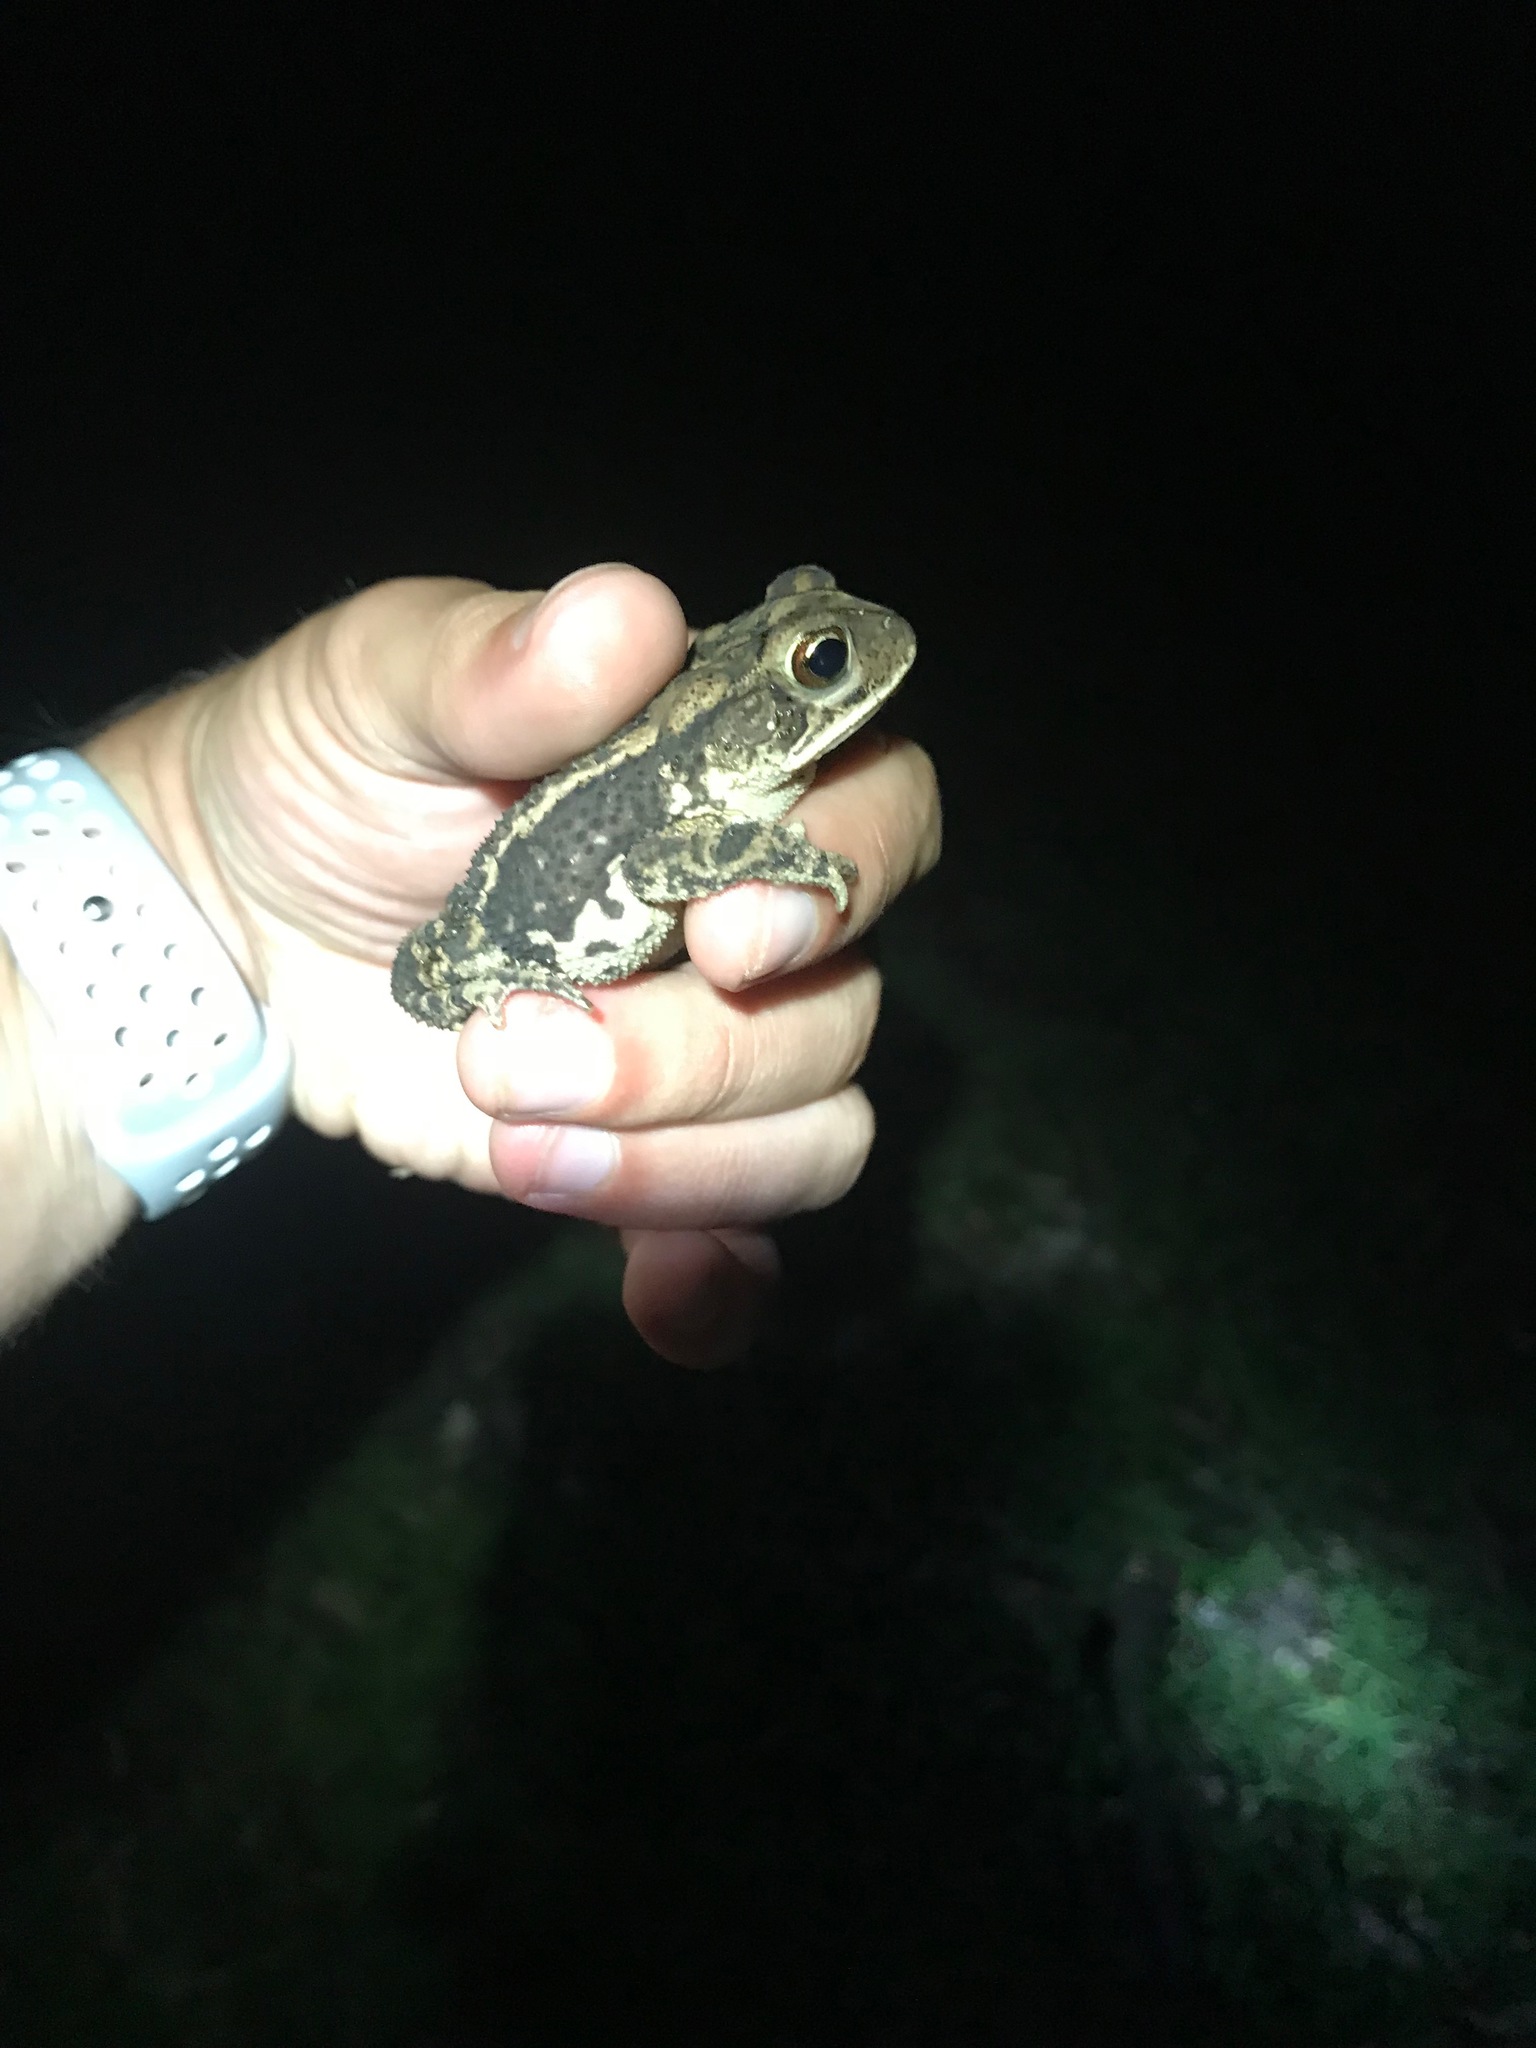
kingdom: Animalia
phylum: Chordata
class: Amphibia
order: Anura
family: Bufonidae
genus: Incilius
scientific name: Incilius nebulifer
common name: Gulf coast toad
